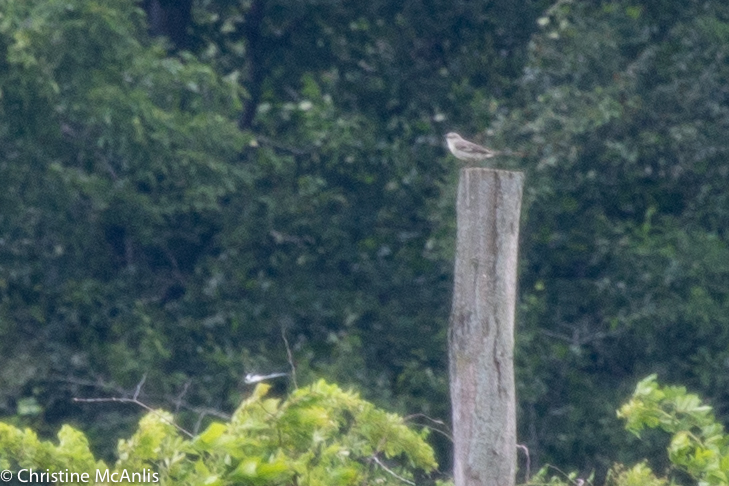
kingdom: Animalia
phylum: Chordata
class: Aves
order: Passeriformes
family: Mimidae
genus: Mimus
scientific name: Mimus polyglottos
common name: Northern mockingbird
